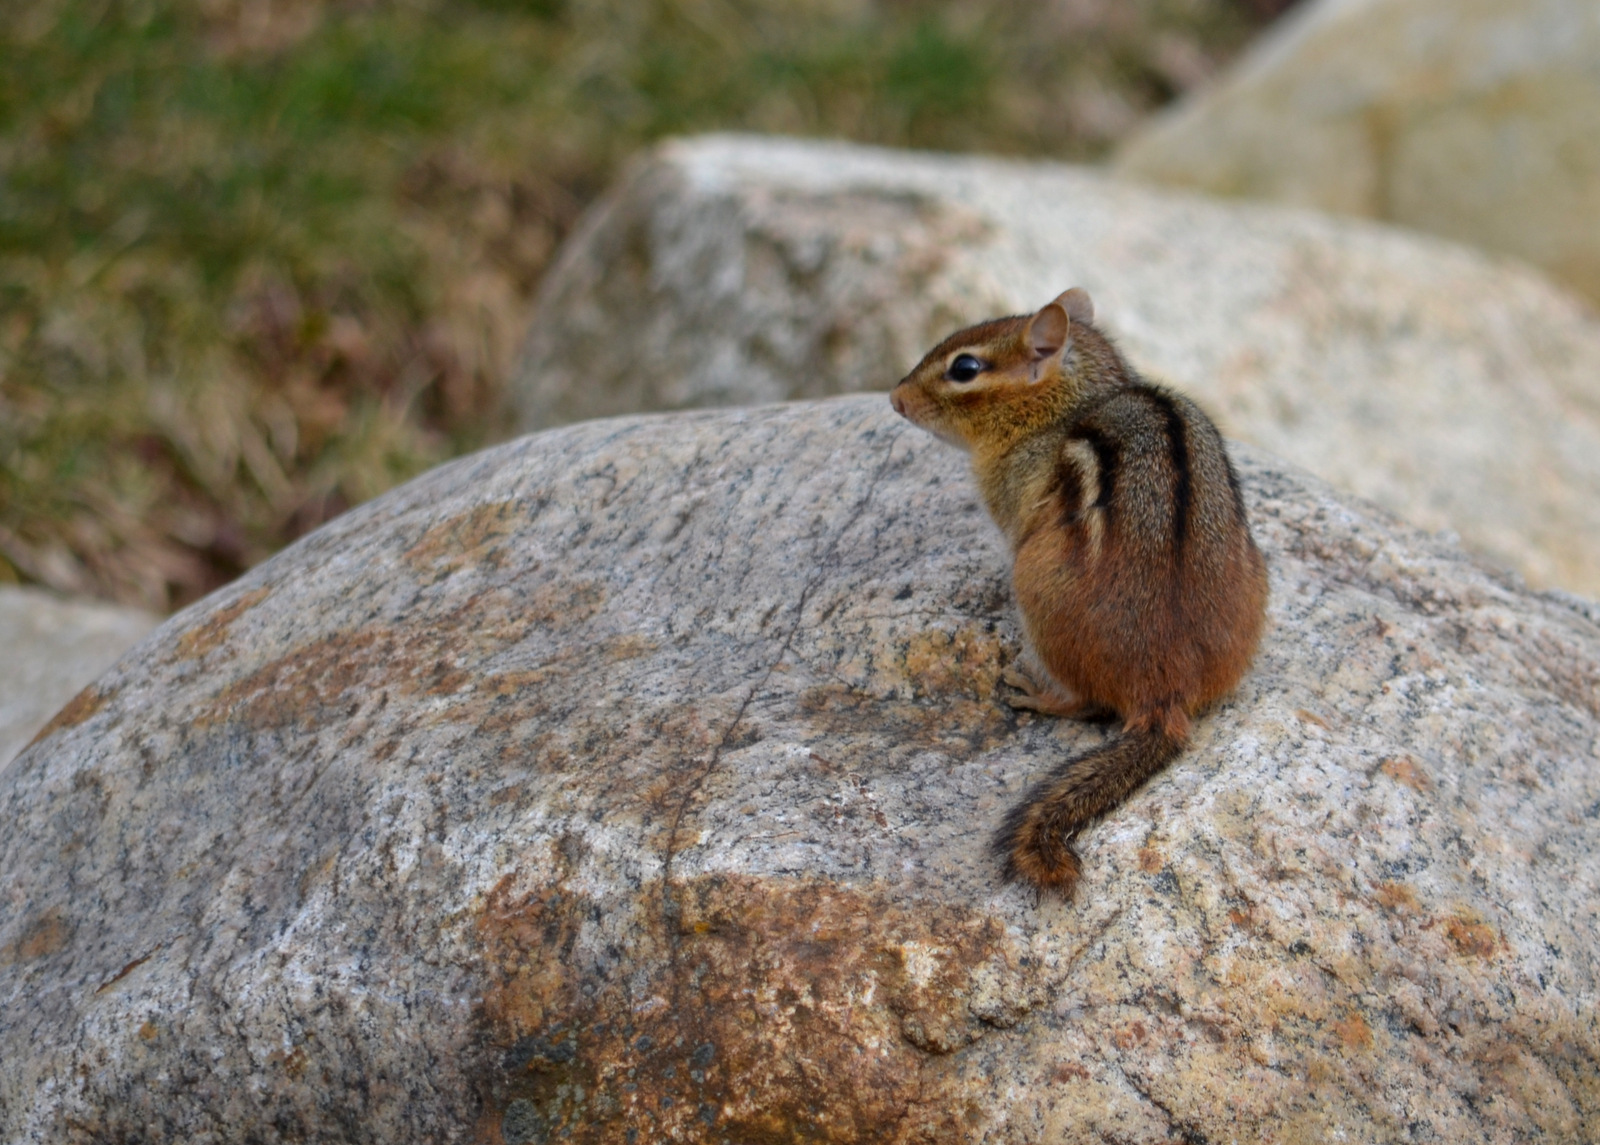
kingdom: Animalia
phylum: Chordata
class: Mammalia
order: Rodentia
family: Sciuridae
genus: Tamias
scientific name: Tamias striatus
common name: Eastern chipmunk
